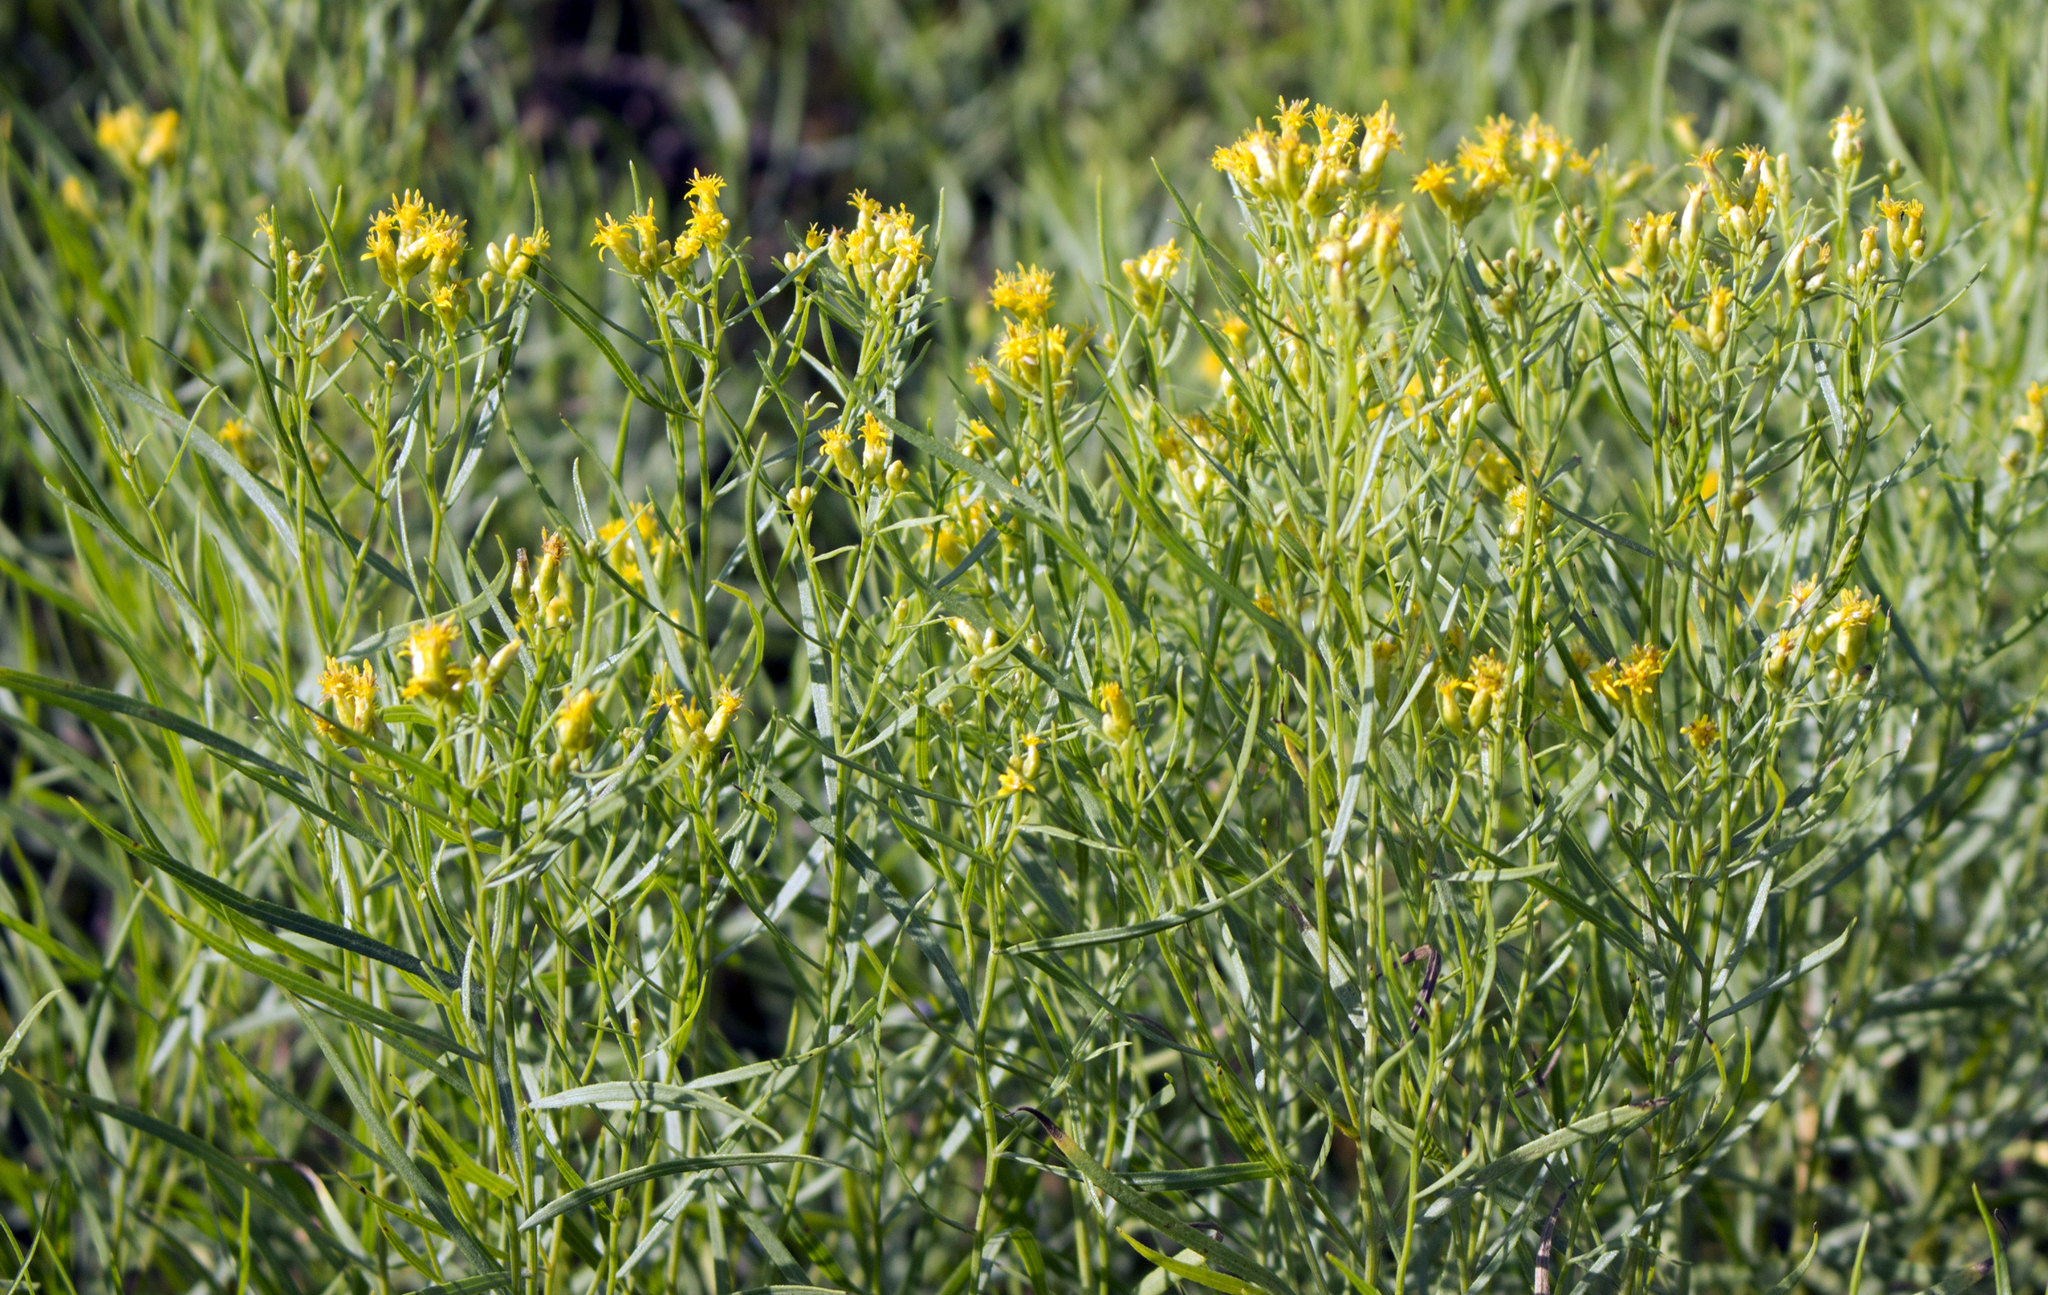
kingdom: Plantae
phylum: Tracheophyta
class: Magnoliopsida
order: Asterales
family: Asteraceae
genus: Euthamia
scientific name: Euthamia graminifolia
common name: Common goldentop
